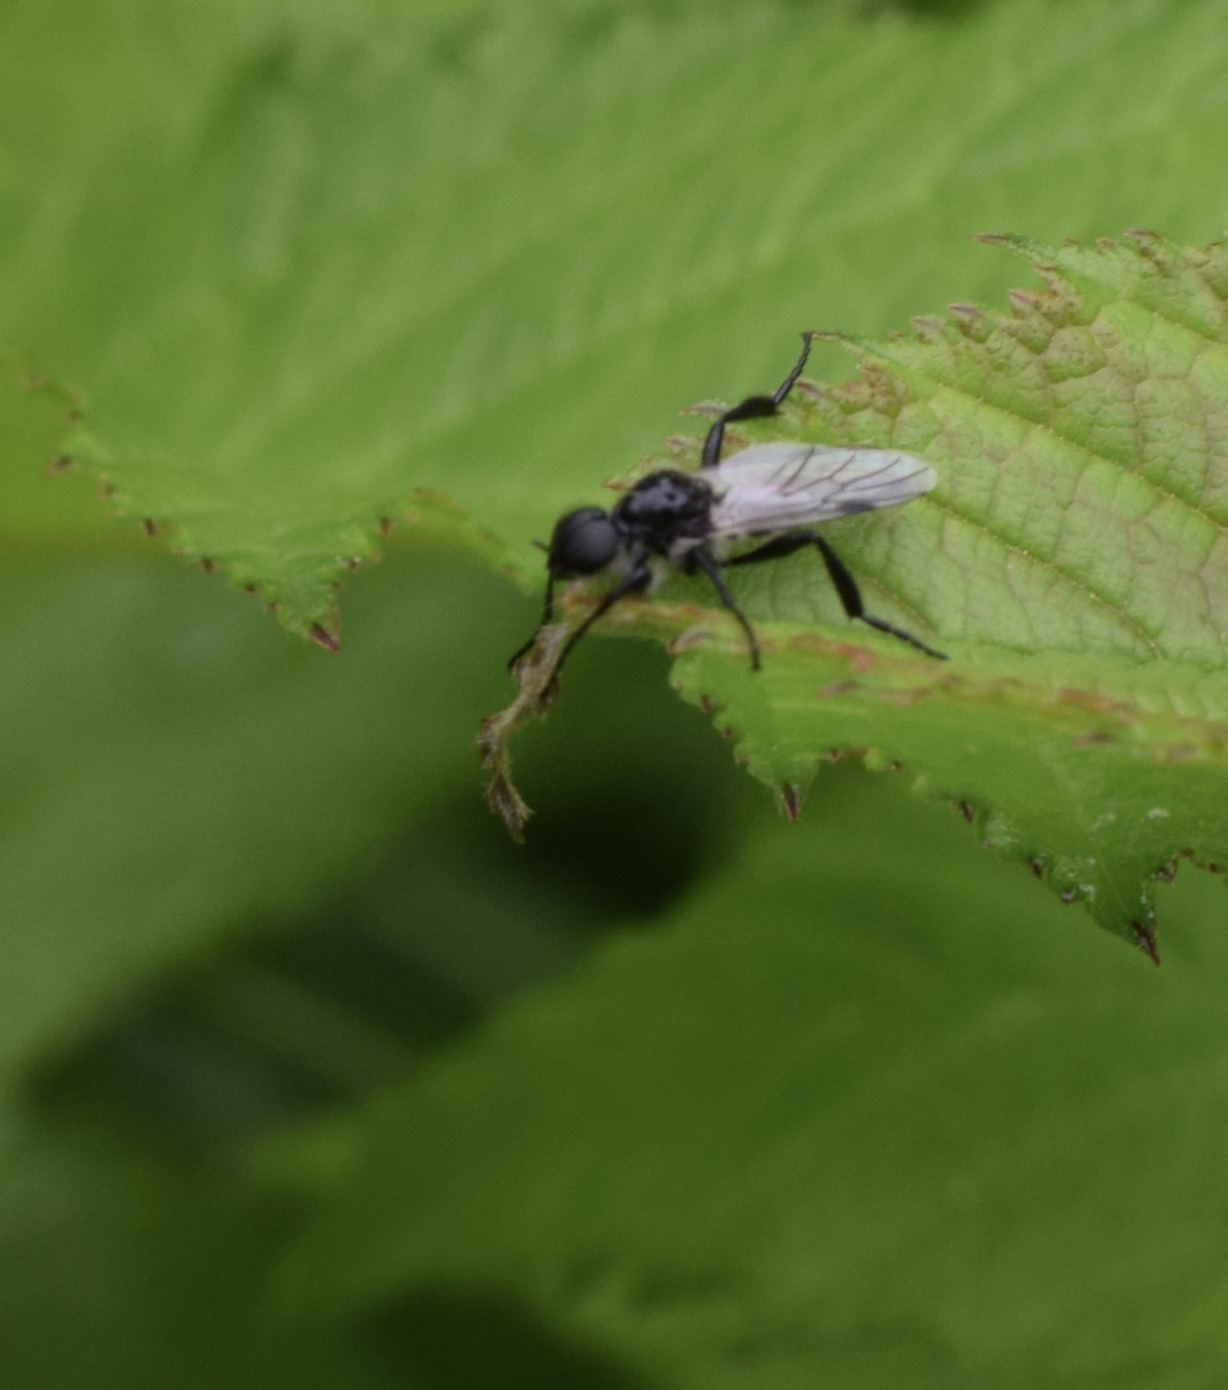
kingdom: Animalia
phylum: Arthropoda
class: Insecta
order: Diptera
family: Bibionidae
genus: Bibio
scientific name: Bibio albipennis
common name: White-winged march fly
